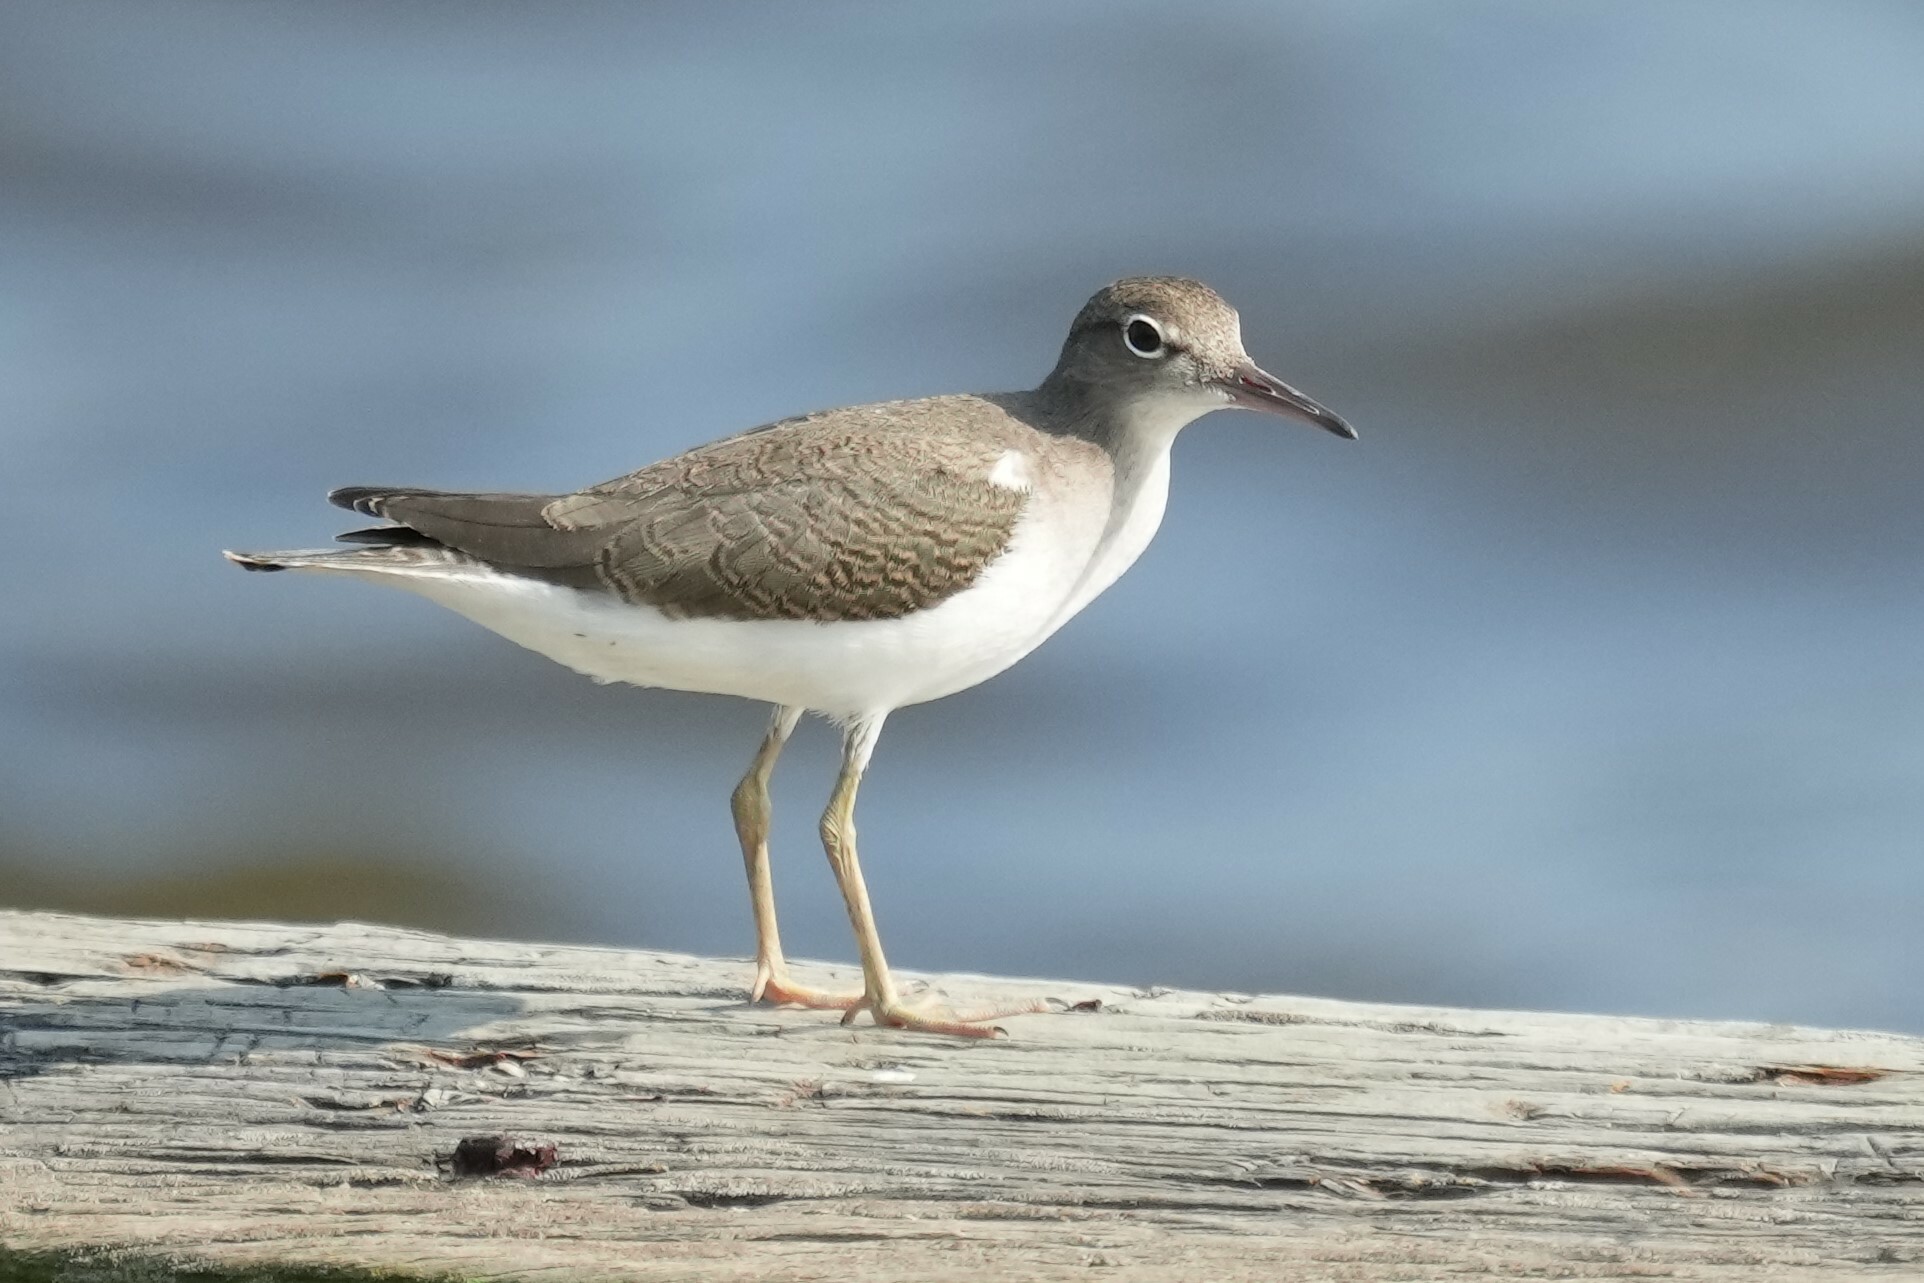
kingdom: Animalia
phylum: Chordata
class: Aves
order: Charadriiformes
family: Scolopacidae
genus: Actitis
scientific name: Actitis macularius
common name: Spotted sandpiper
